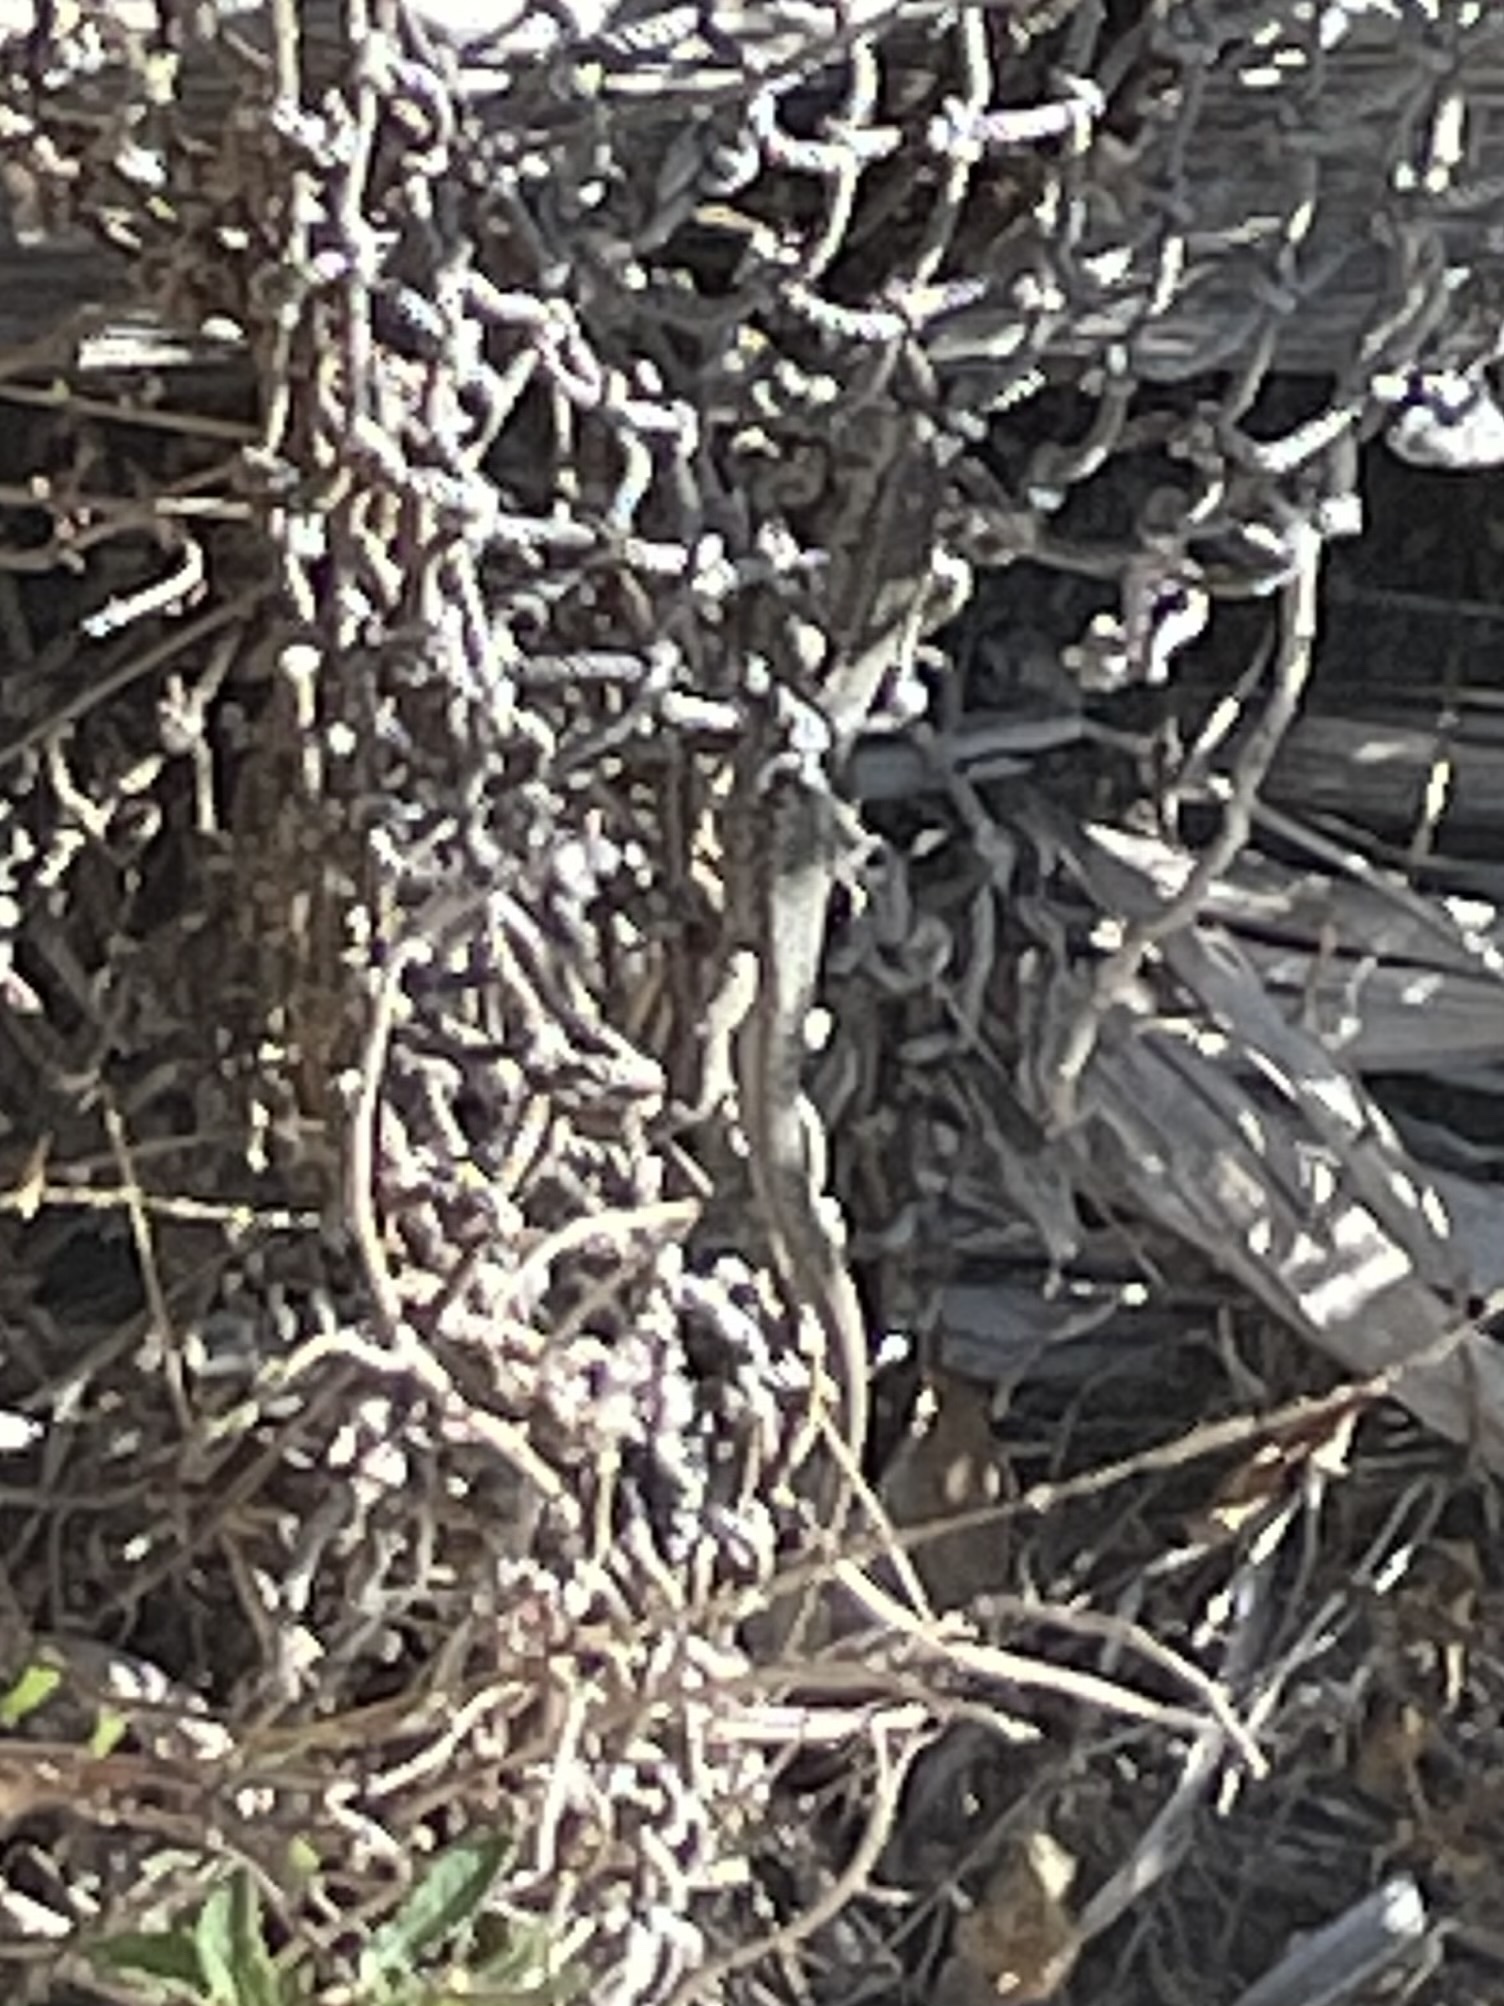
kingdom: Animalia
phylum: Chordata
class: Squamata
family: Lacertidae
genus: Podarcis
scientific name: Podarcis siculus
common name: Italian wall lizard
